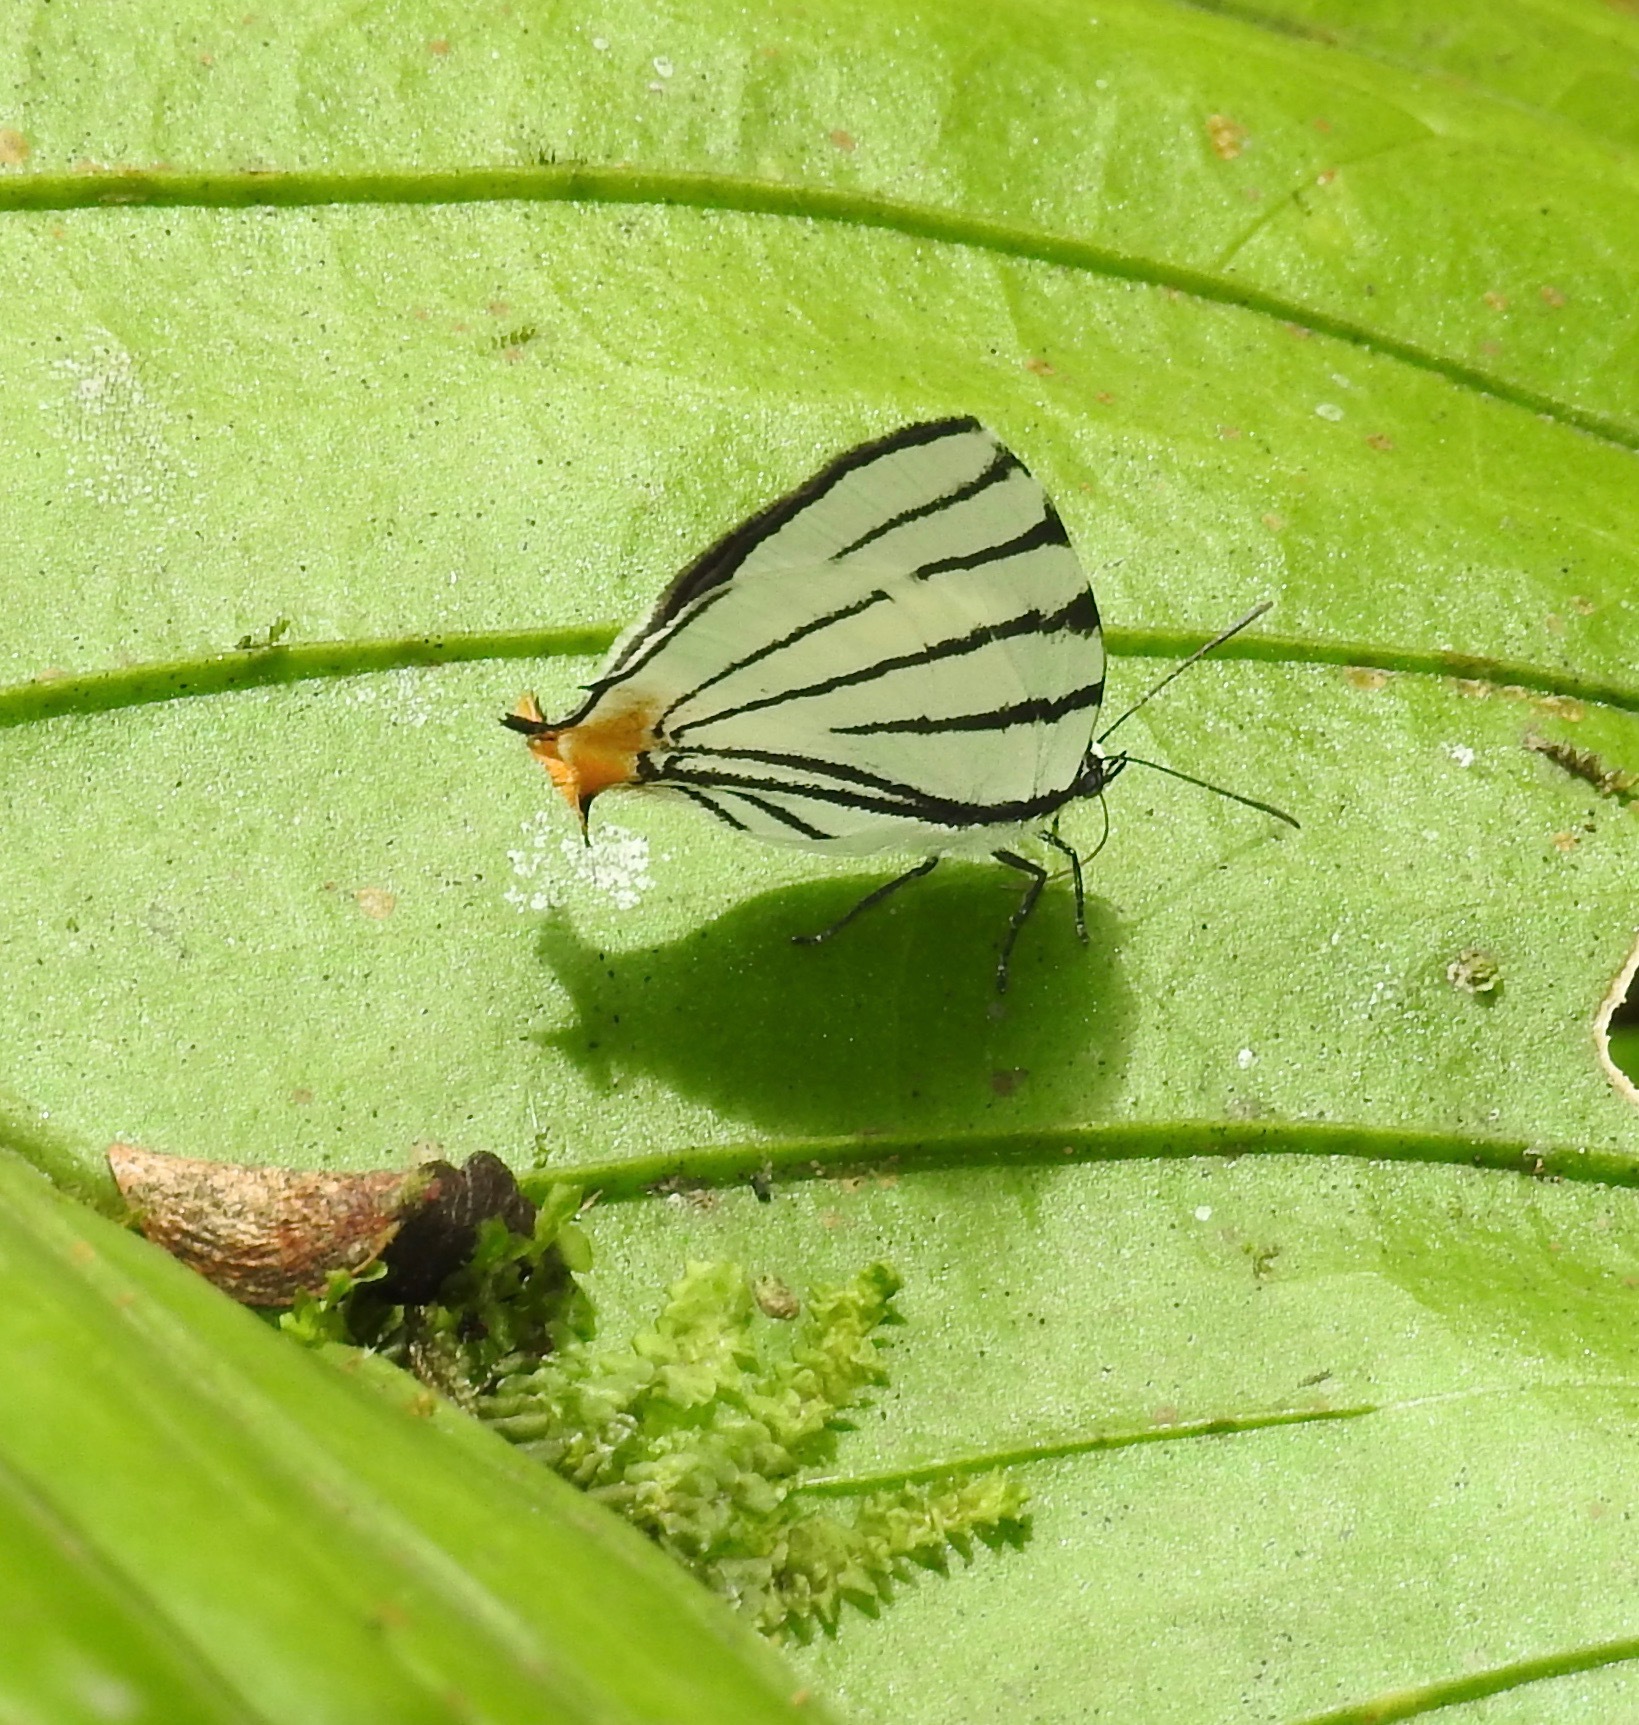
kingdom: Animalia
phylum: Arthropoda
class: Insecta
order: Lepidoptera
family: Lycaenidae
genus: Arawacus
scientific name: Arawacus leucogyna
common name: Black-tipped stripe-streak
